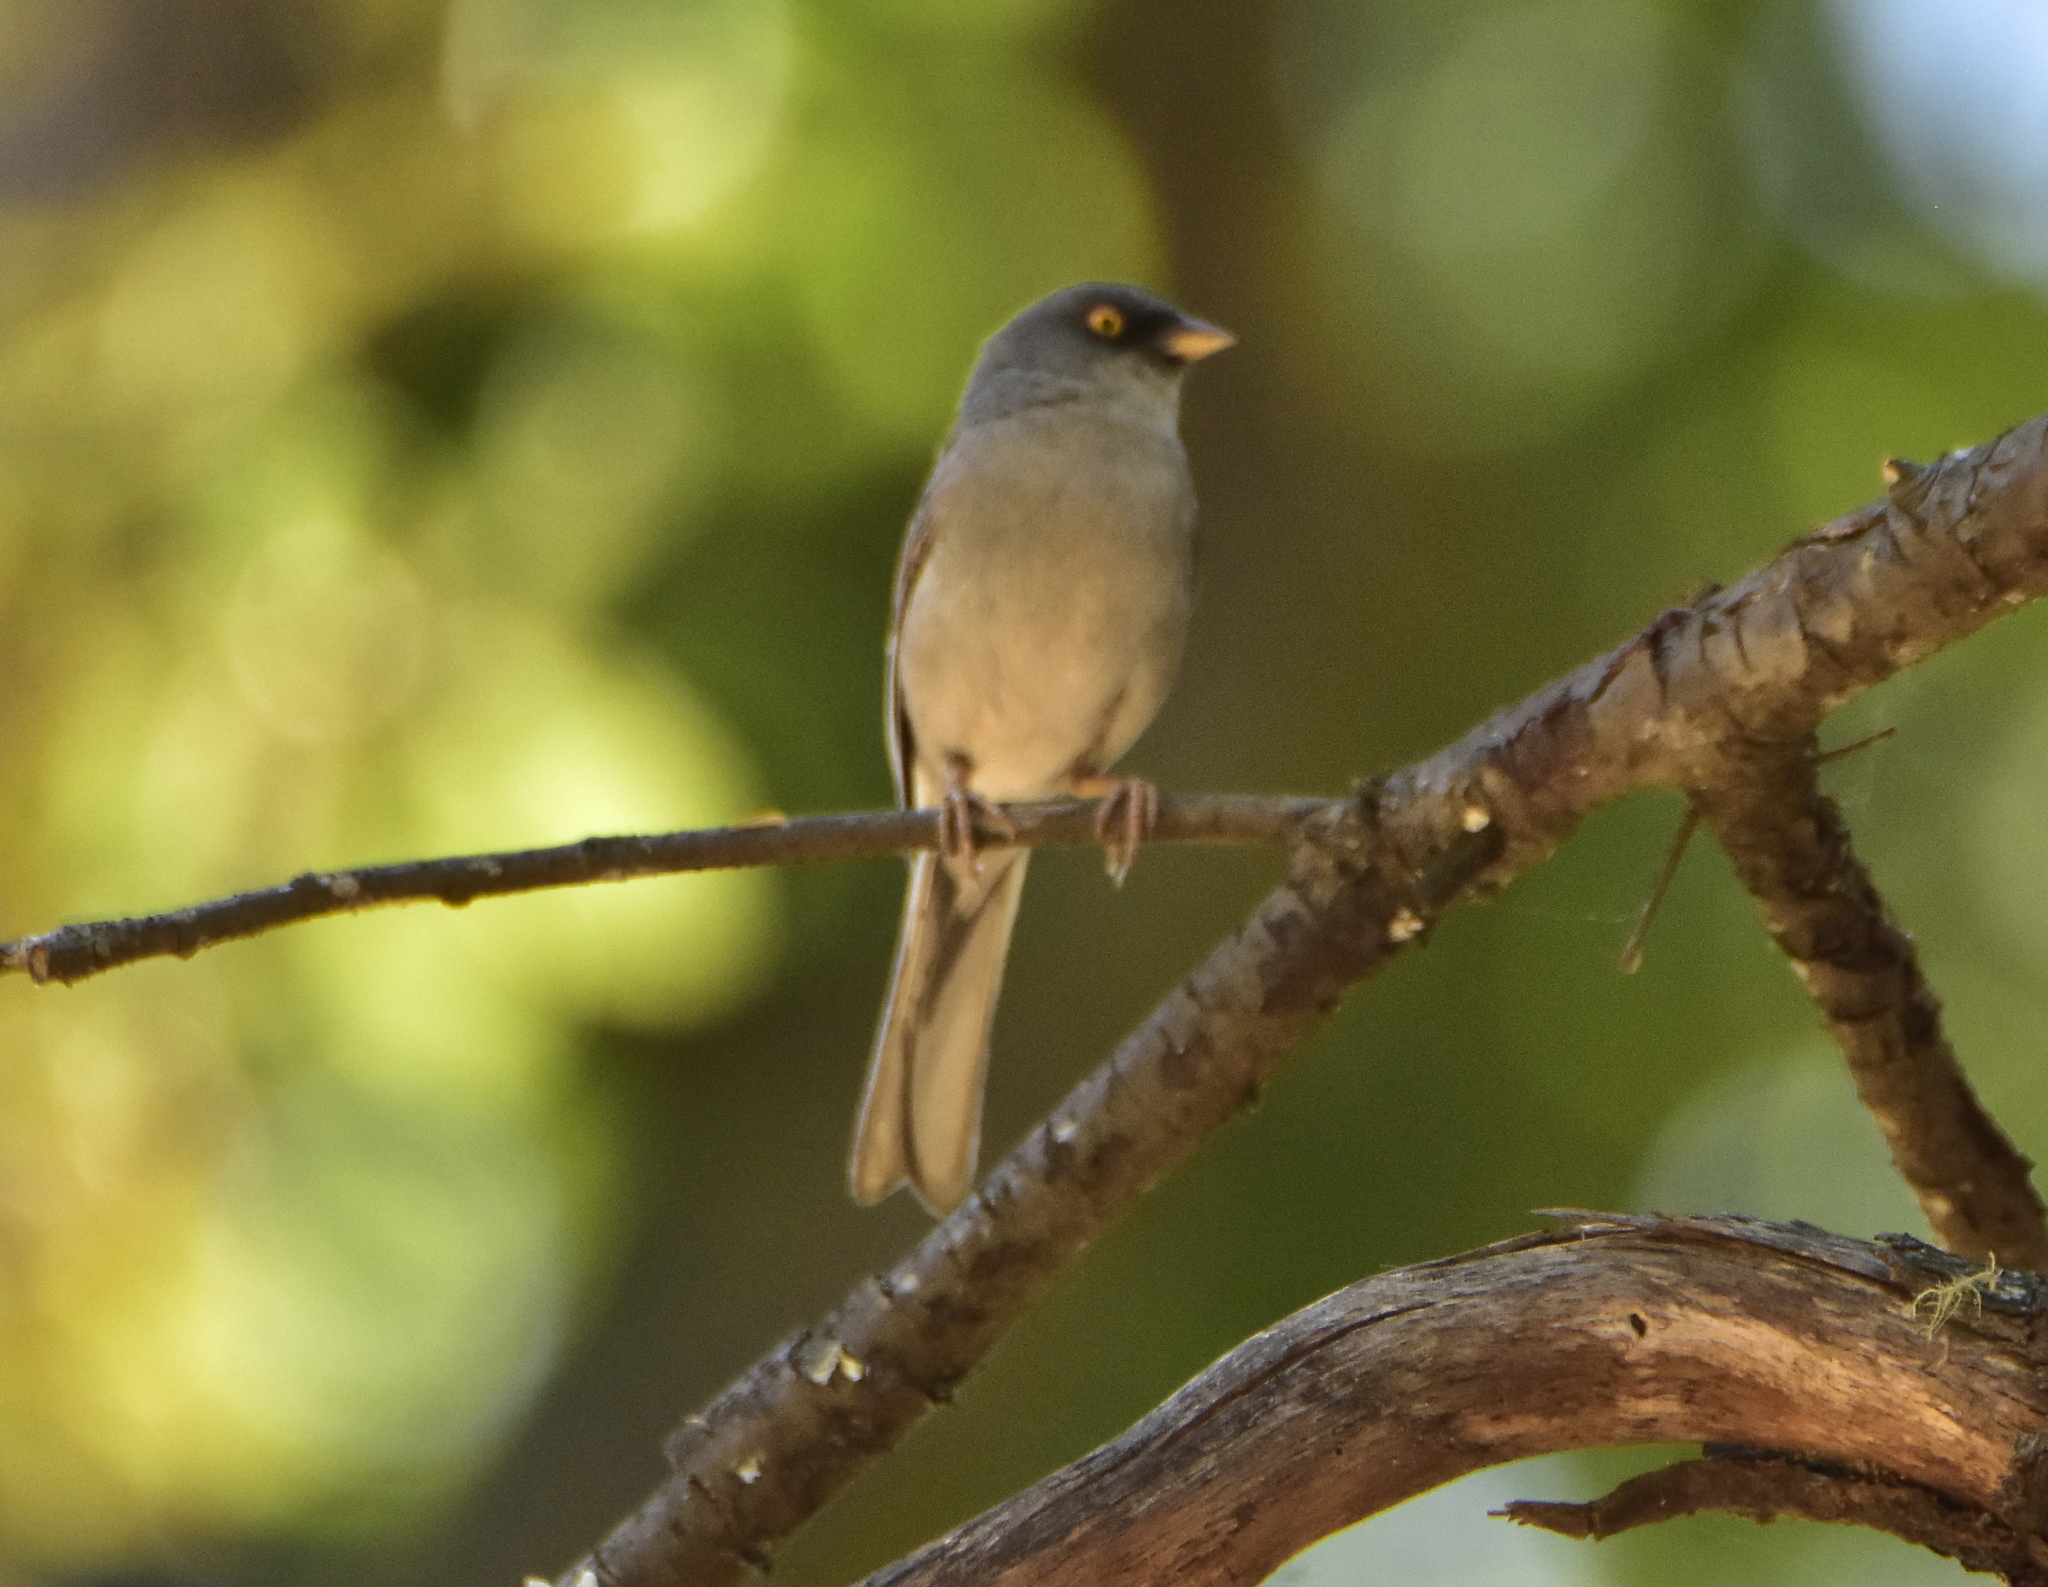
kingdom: Animalia
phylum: Chordata
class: Aves
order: Passeriformes
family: Passerellidae
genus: Junco
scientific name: Junco phaeonotus
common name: Yellow-eyed junco
